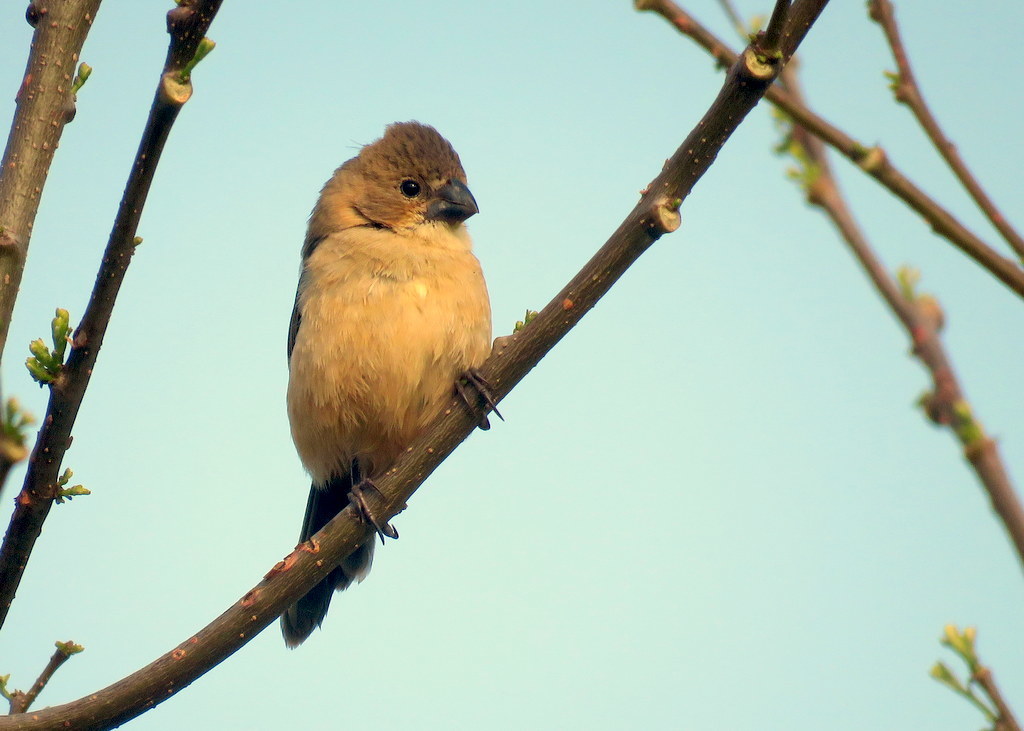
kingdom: Animalia
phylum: Chordata
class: Aves
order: Passeriformes
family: Thraupidae
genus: Sporophila
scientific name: Sporophila collaris
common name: Rusty-collared seedeater
